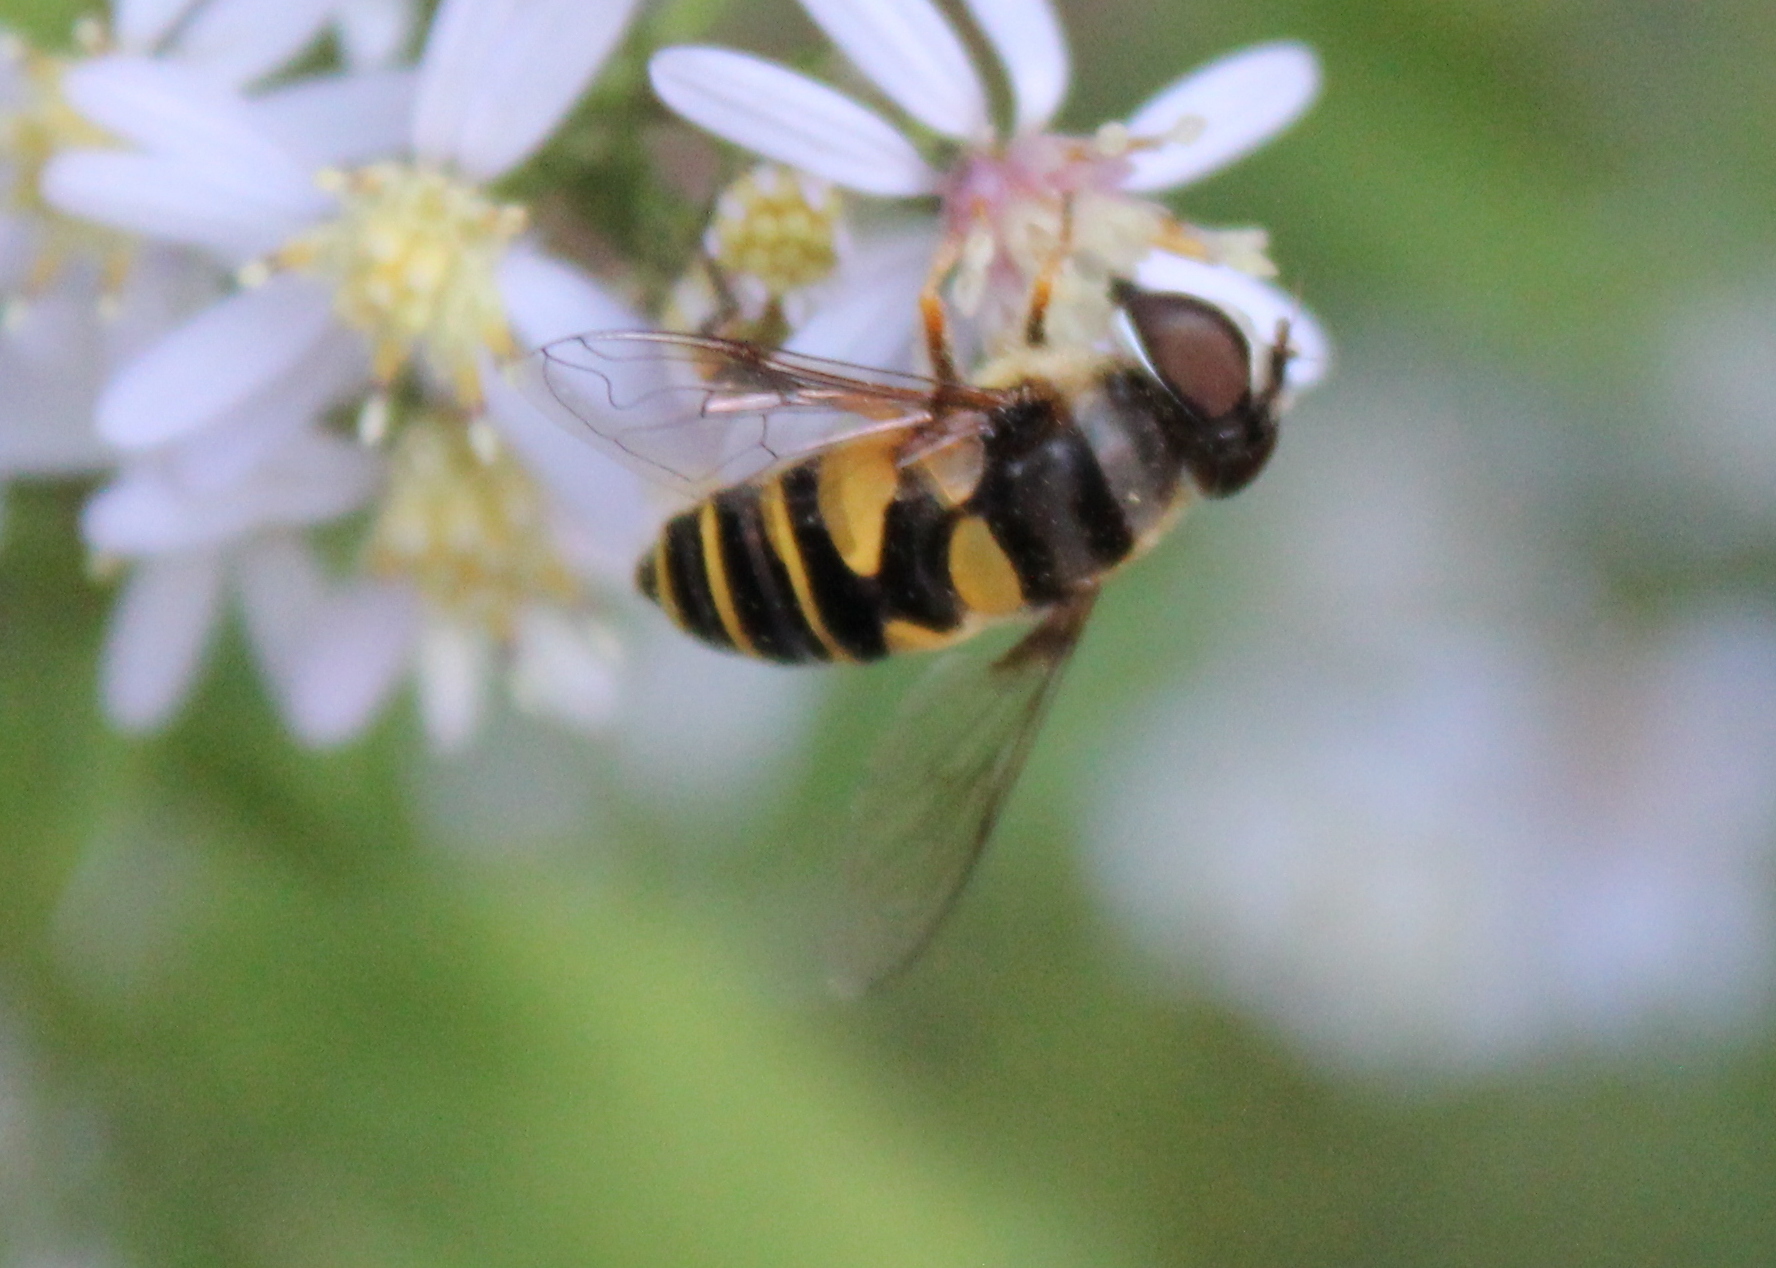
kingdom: Animalia
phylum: Arthropoda
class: Insecta
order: Diptera
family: Syrphidae
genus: Eristalis
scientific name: Eristalis transversa
